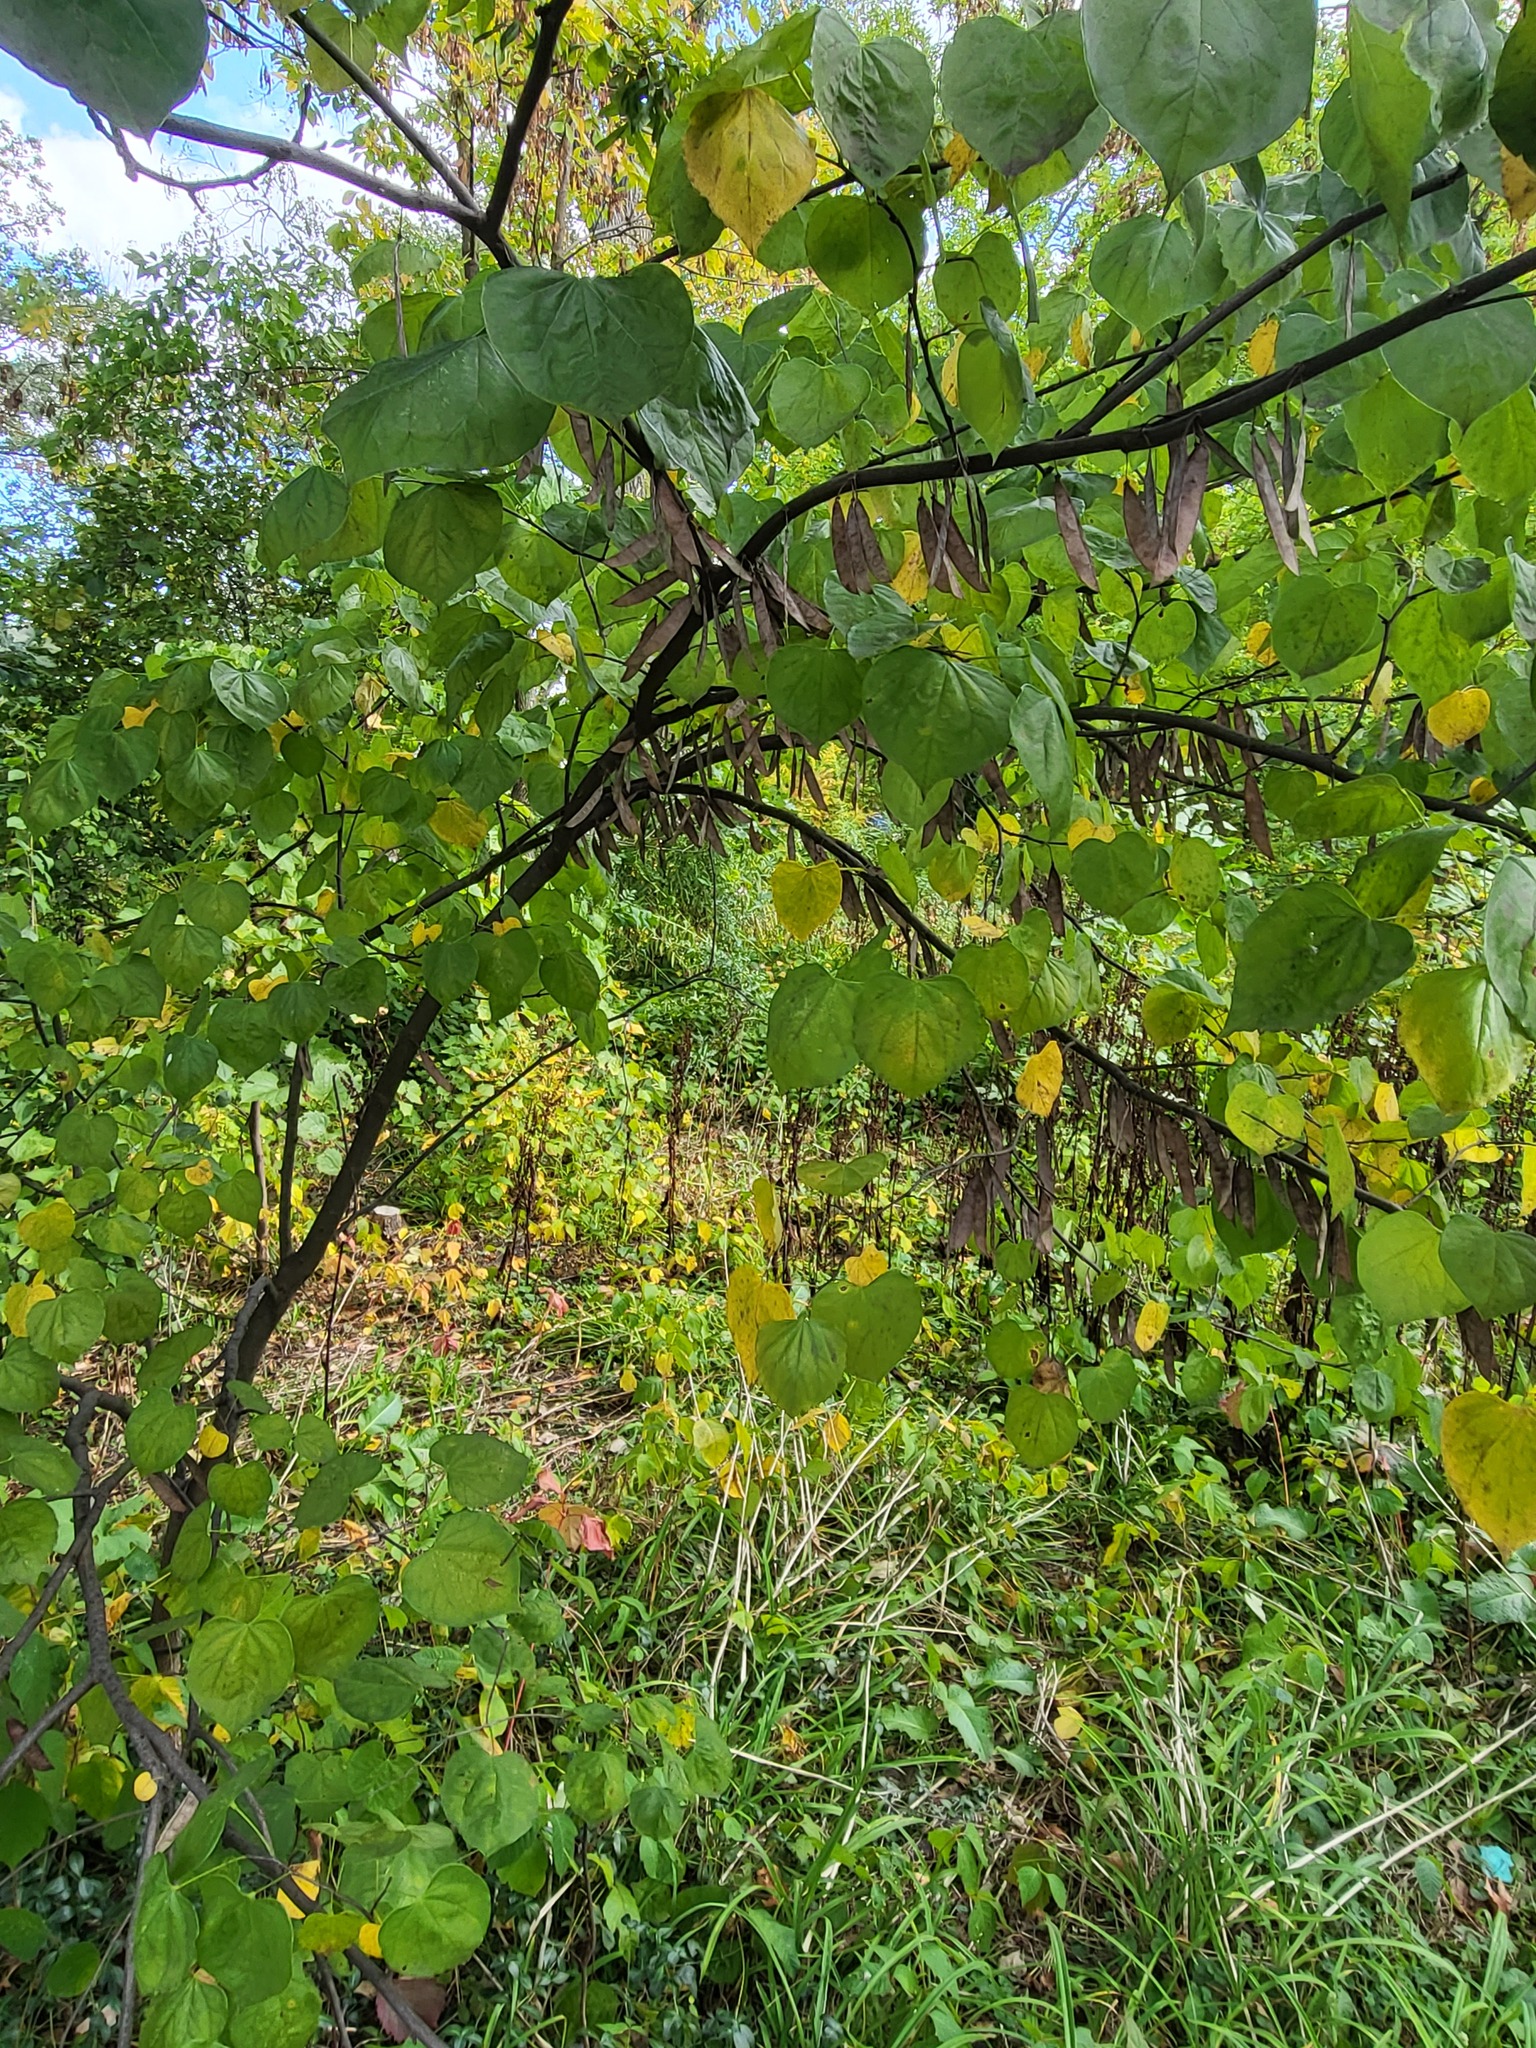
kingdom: Plantae
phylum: Tracheophyta
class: Magnoliopsida
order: Fabales
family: Fabaceae
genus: Cercis
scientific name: Cercis canadensis
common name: Eastern redbud
